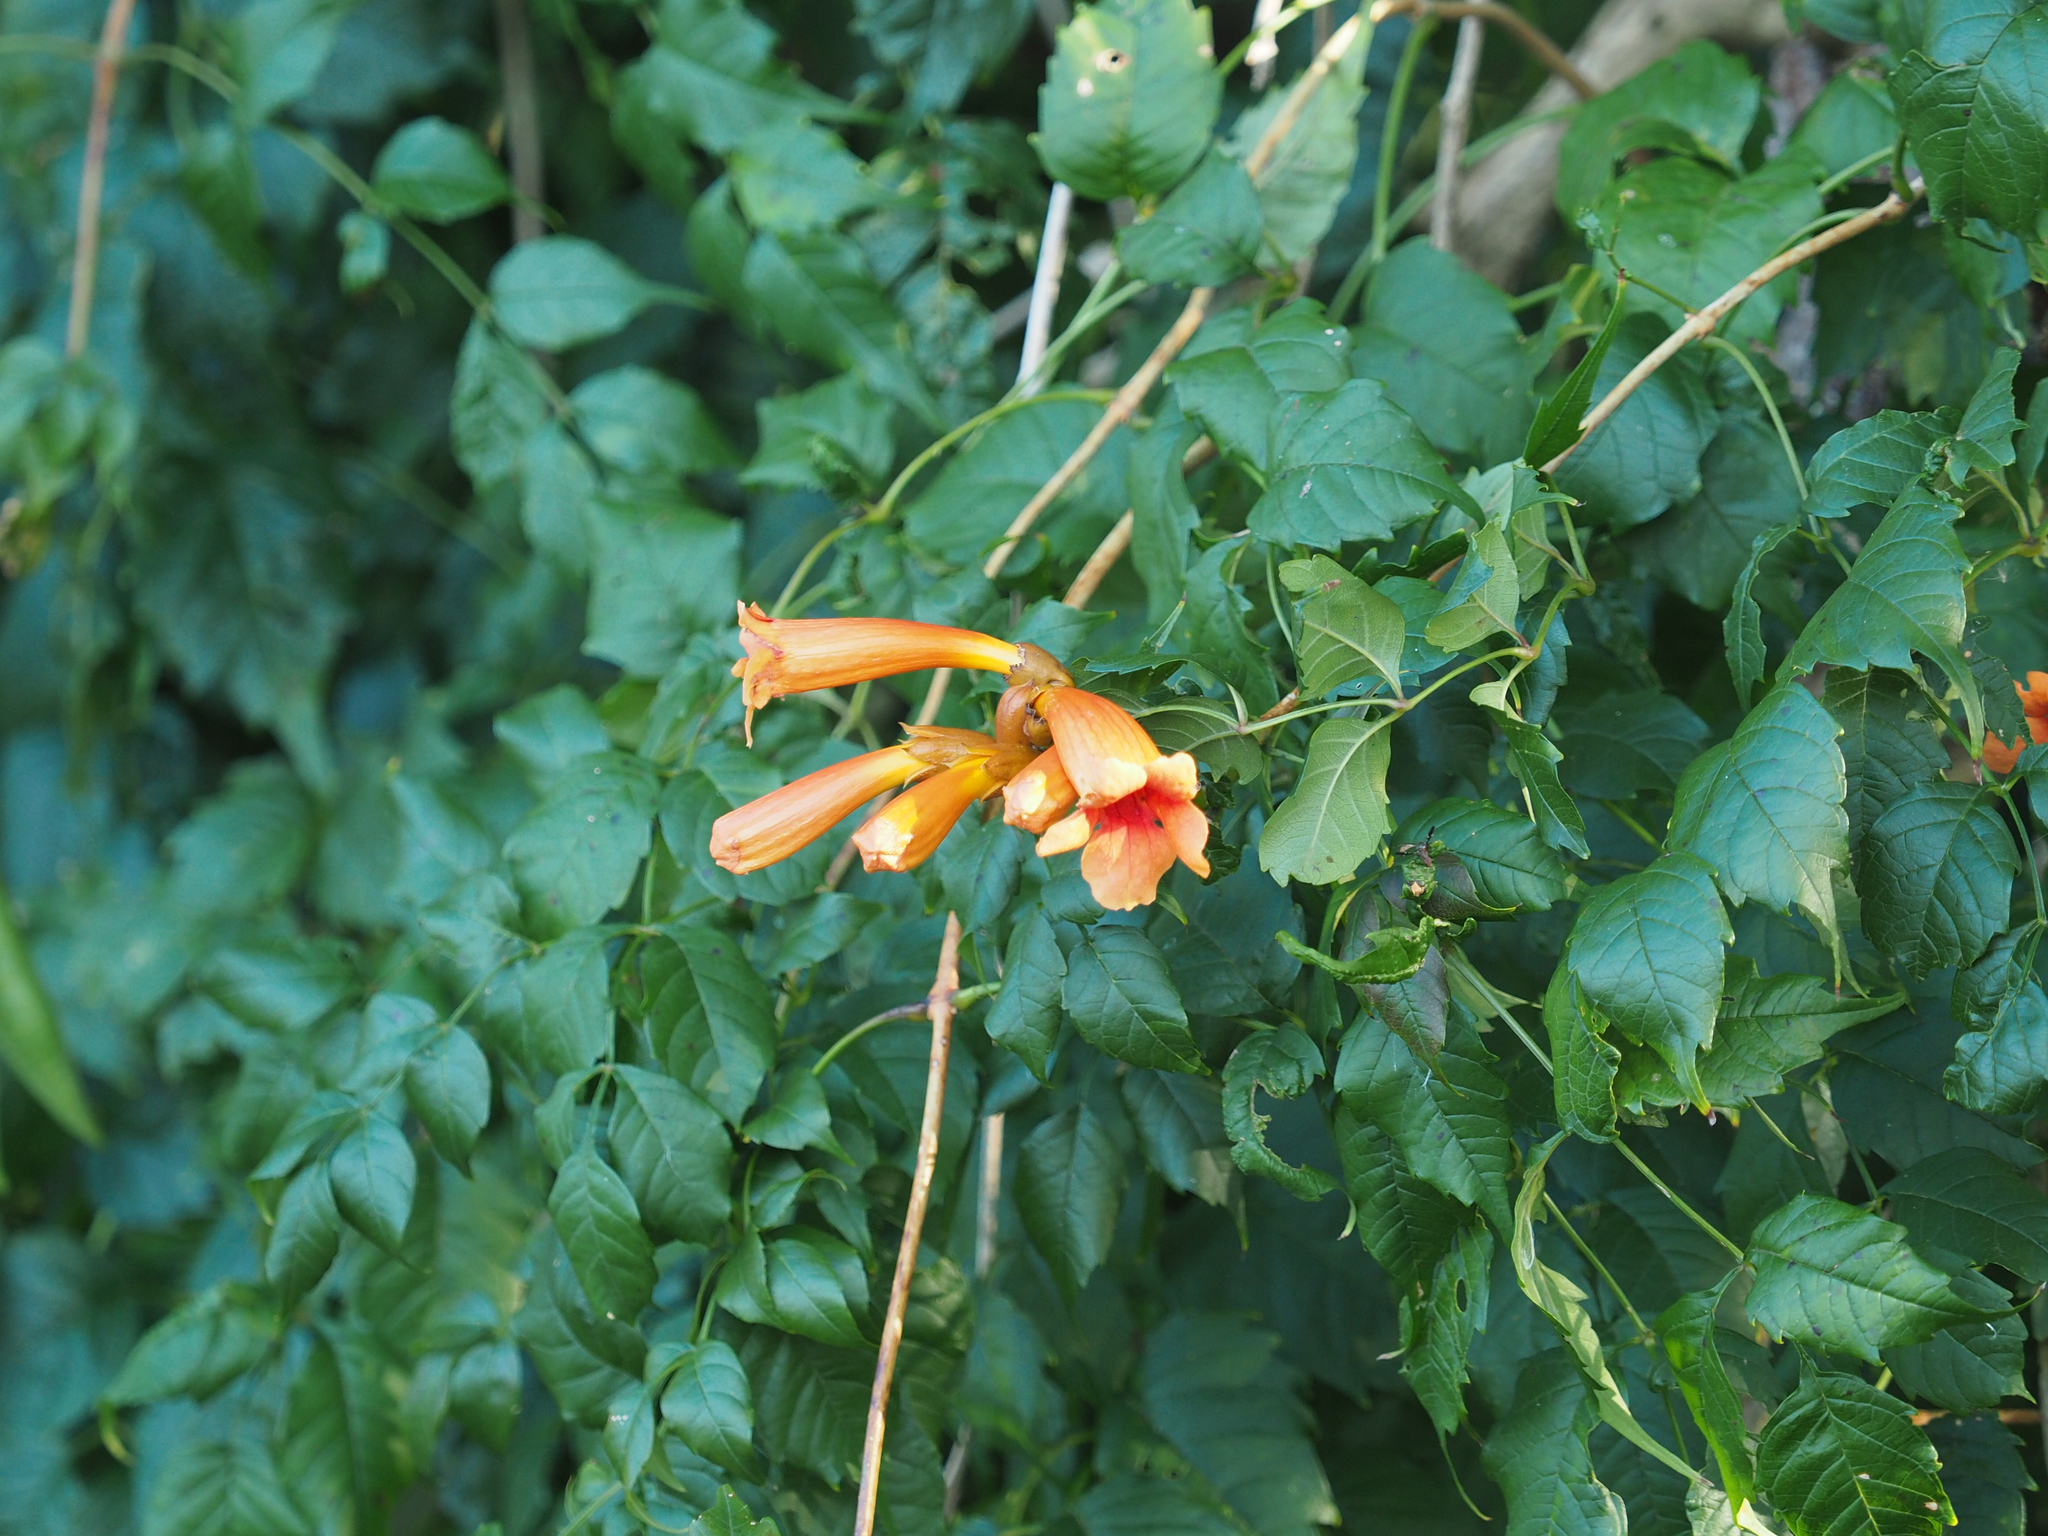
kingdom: Plantae
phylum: Tracheophyta
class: Magnoliopsida
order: Lamiales
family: Bignoniaceae
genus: Campsis
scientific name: Campsis radicans
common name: Trumpet-creeper
